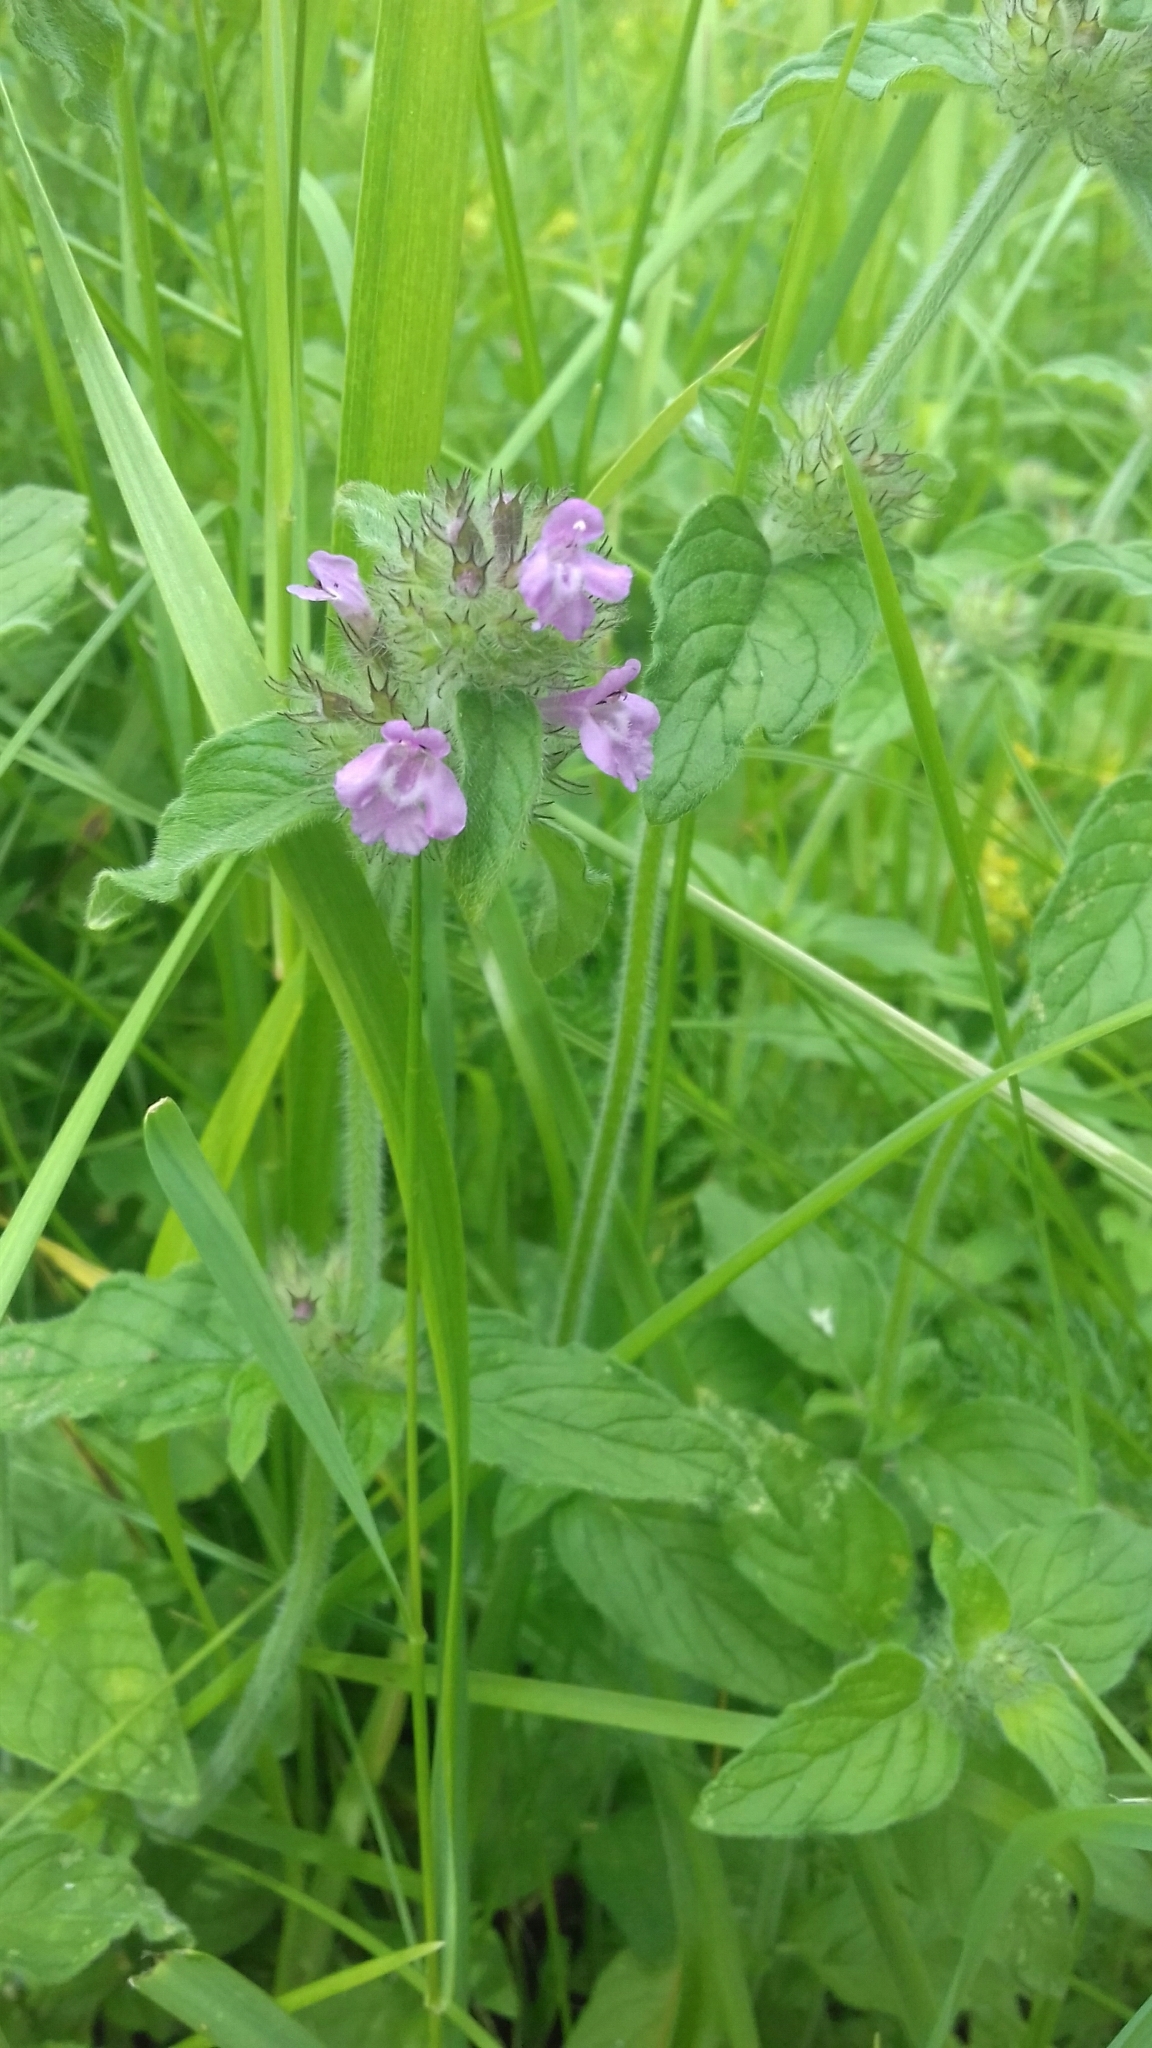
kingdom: Plantae
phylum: Tracheophyta
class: Magnoliopsida
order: Lamiales
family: Lamiaceae
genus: Clinopodium
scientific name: Clinopodium vulgare
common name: Wild basil
